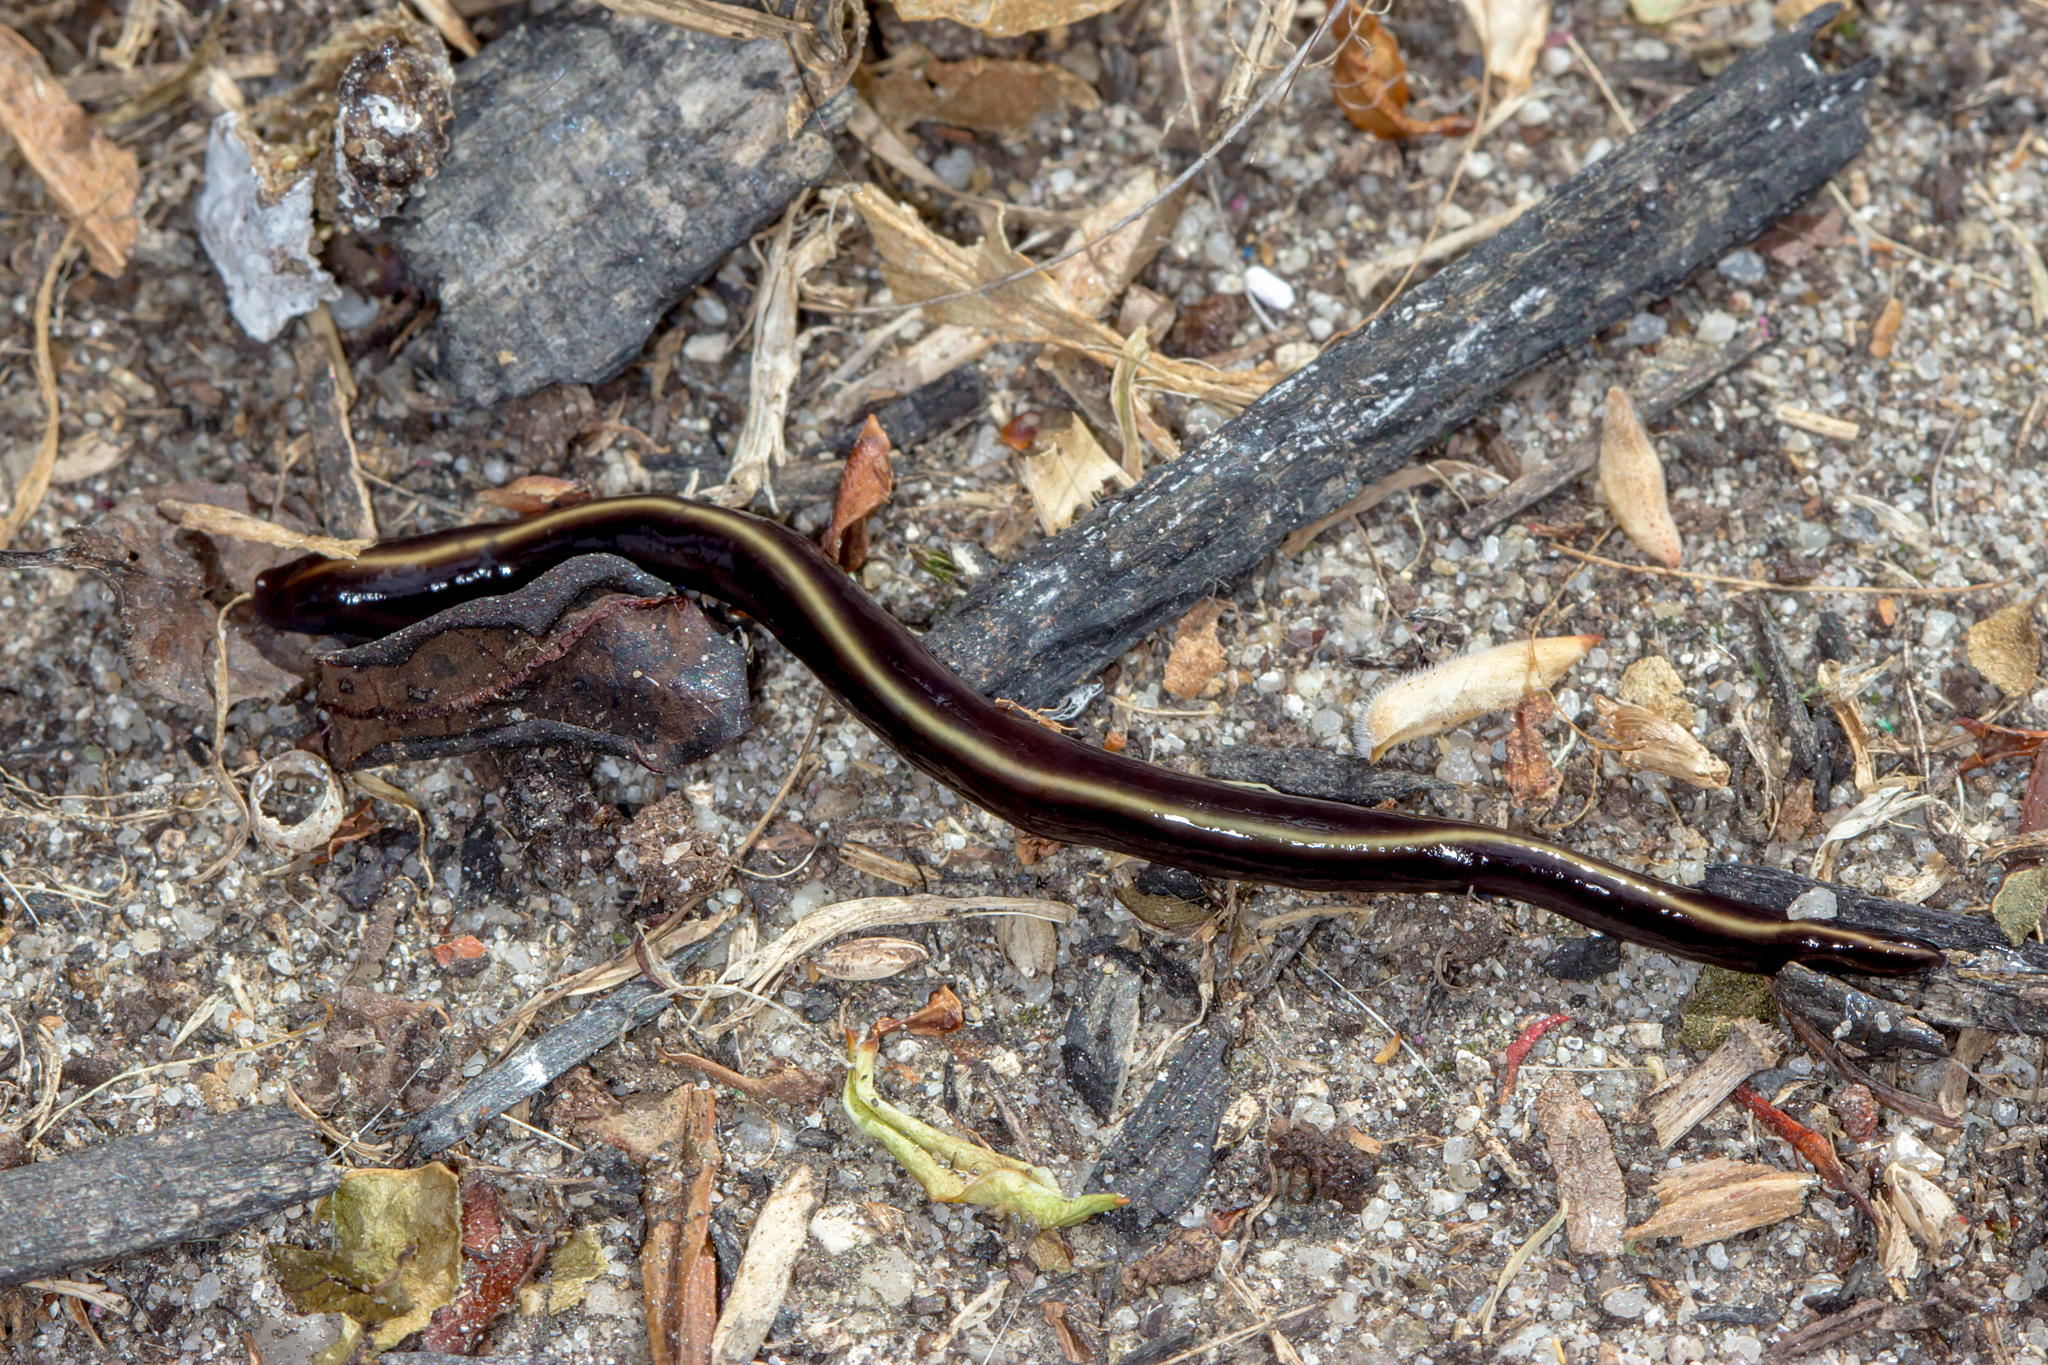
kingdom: Animalia
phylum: Platyhelminthes
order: Tricladida
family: Geoplanidae
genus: Caenoplana
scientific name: Caenoplana coerulea
